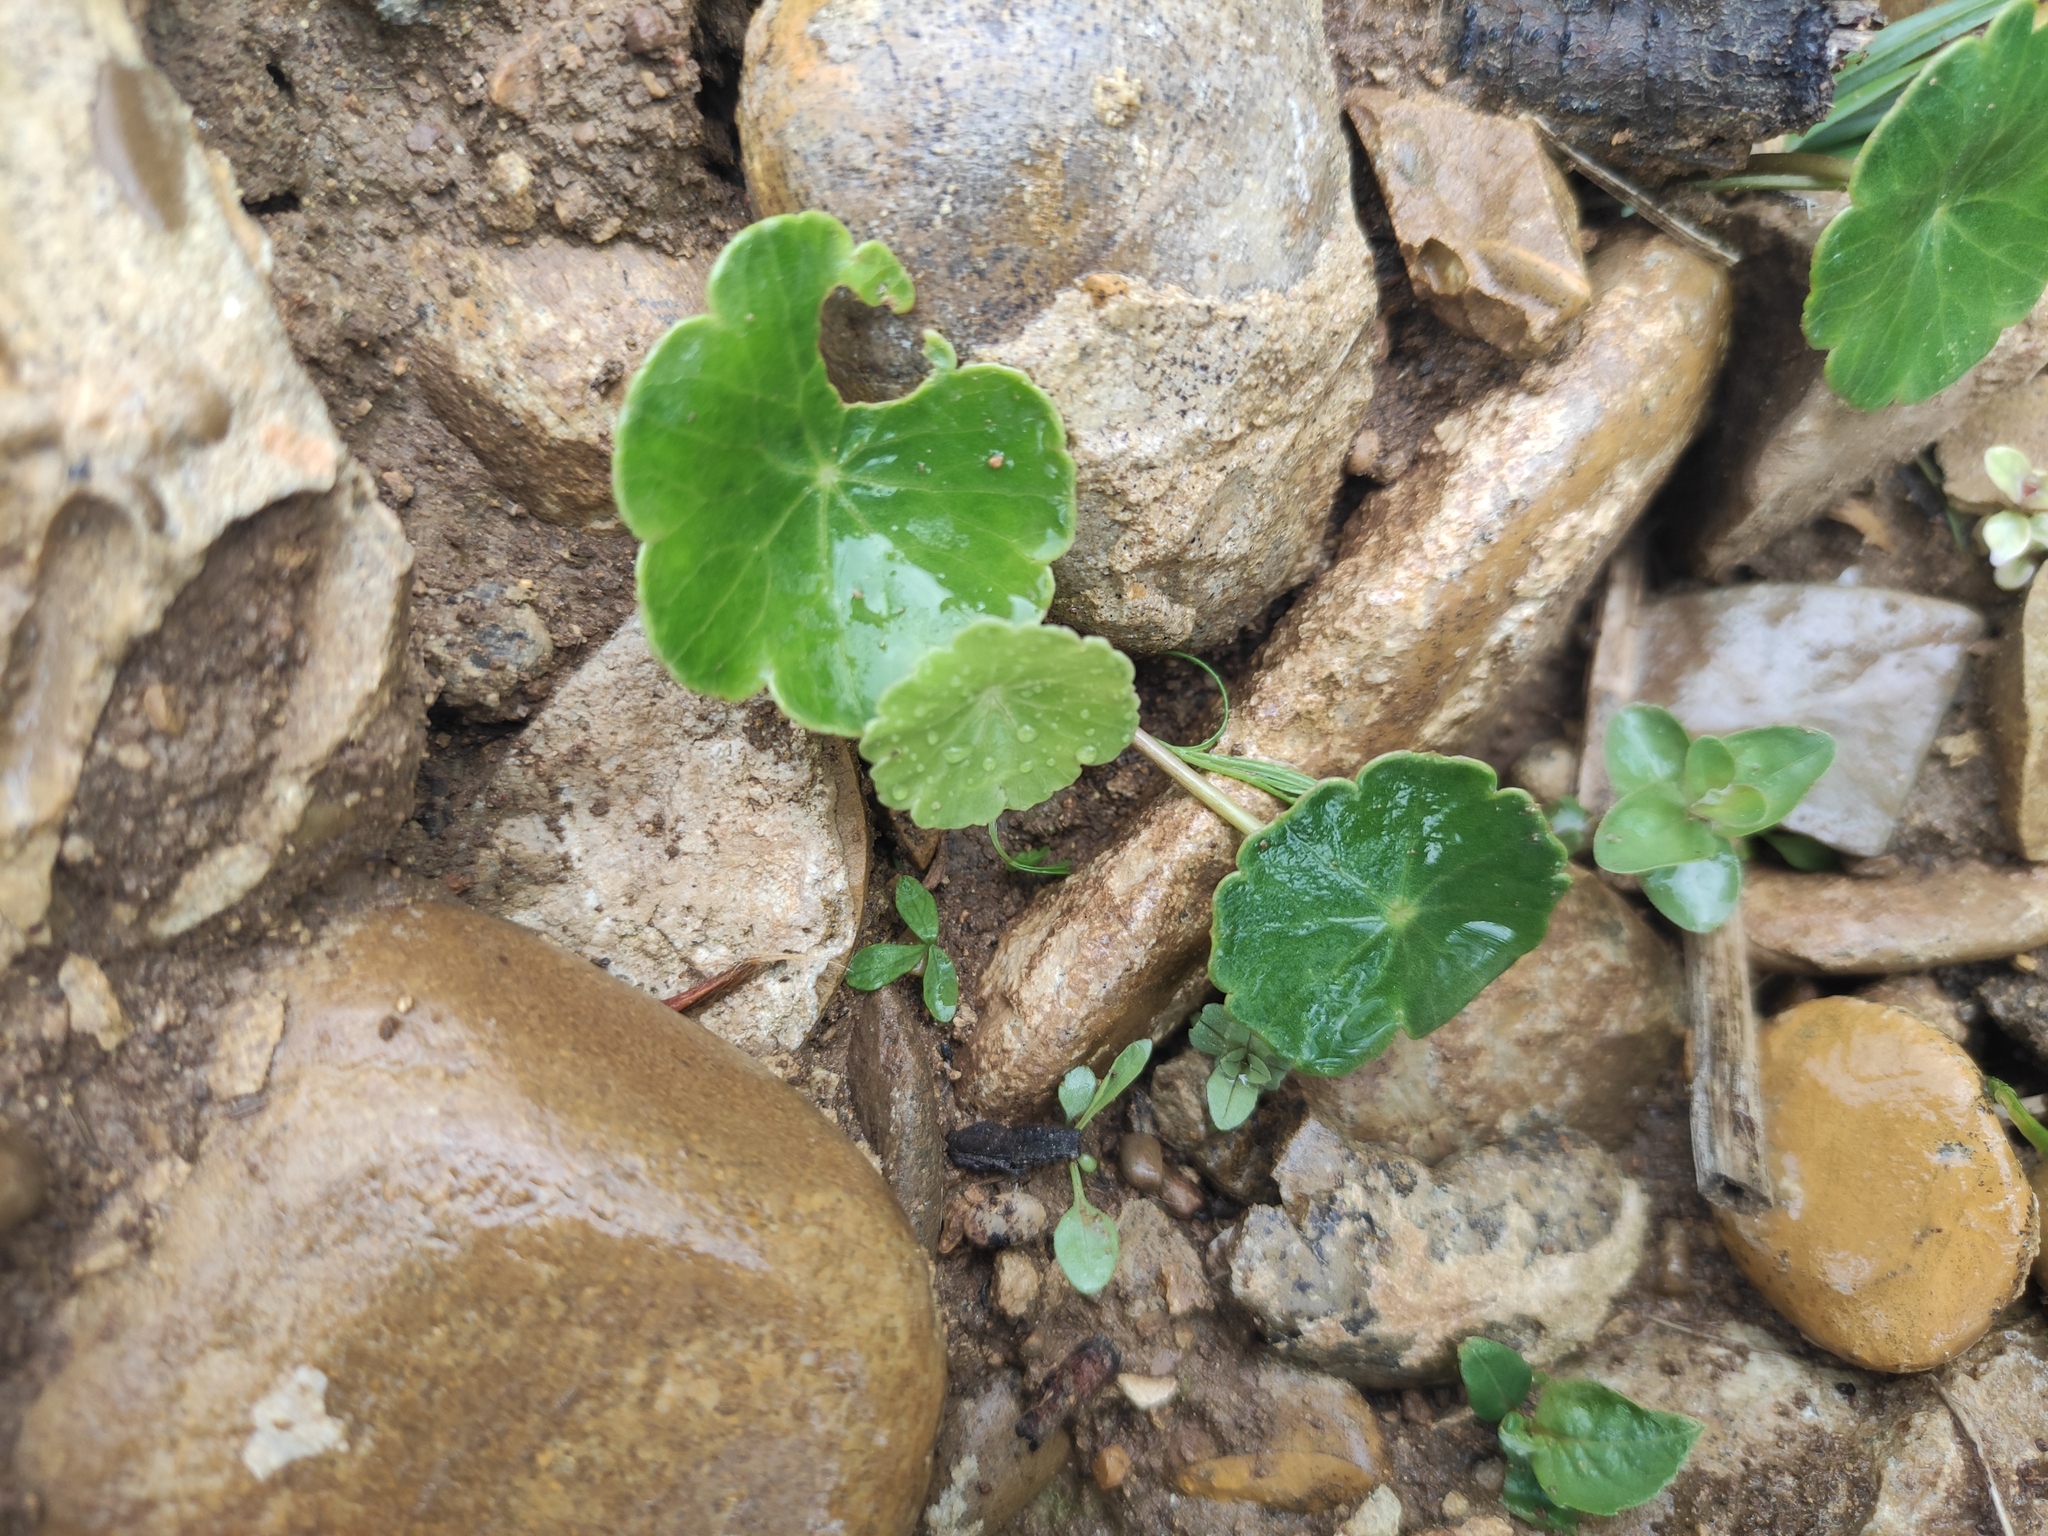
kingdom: Plantae
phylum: Tracheophyta
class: Magnoliopsida
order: Apiales
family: Araliaceae
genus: Hydrocotyle
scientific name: Hydrocotyle vulgaris
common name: Marsh pennywort
